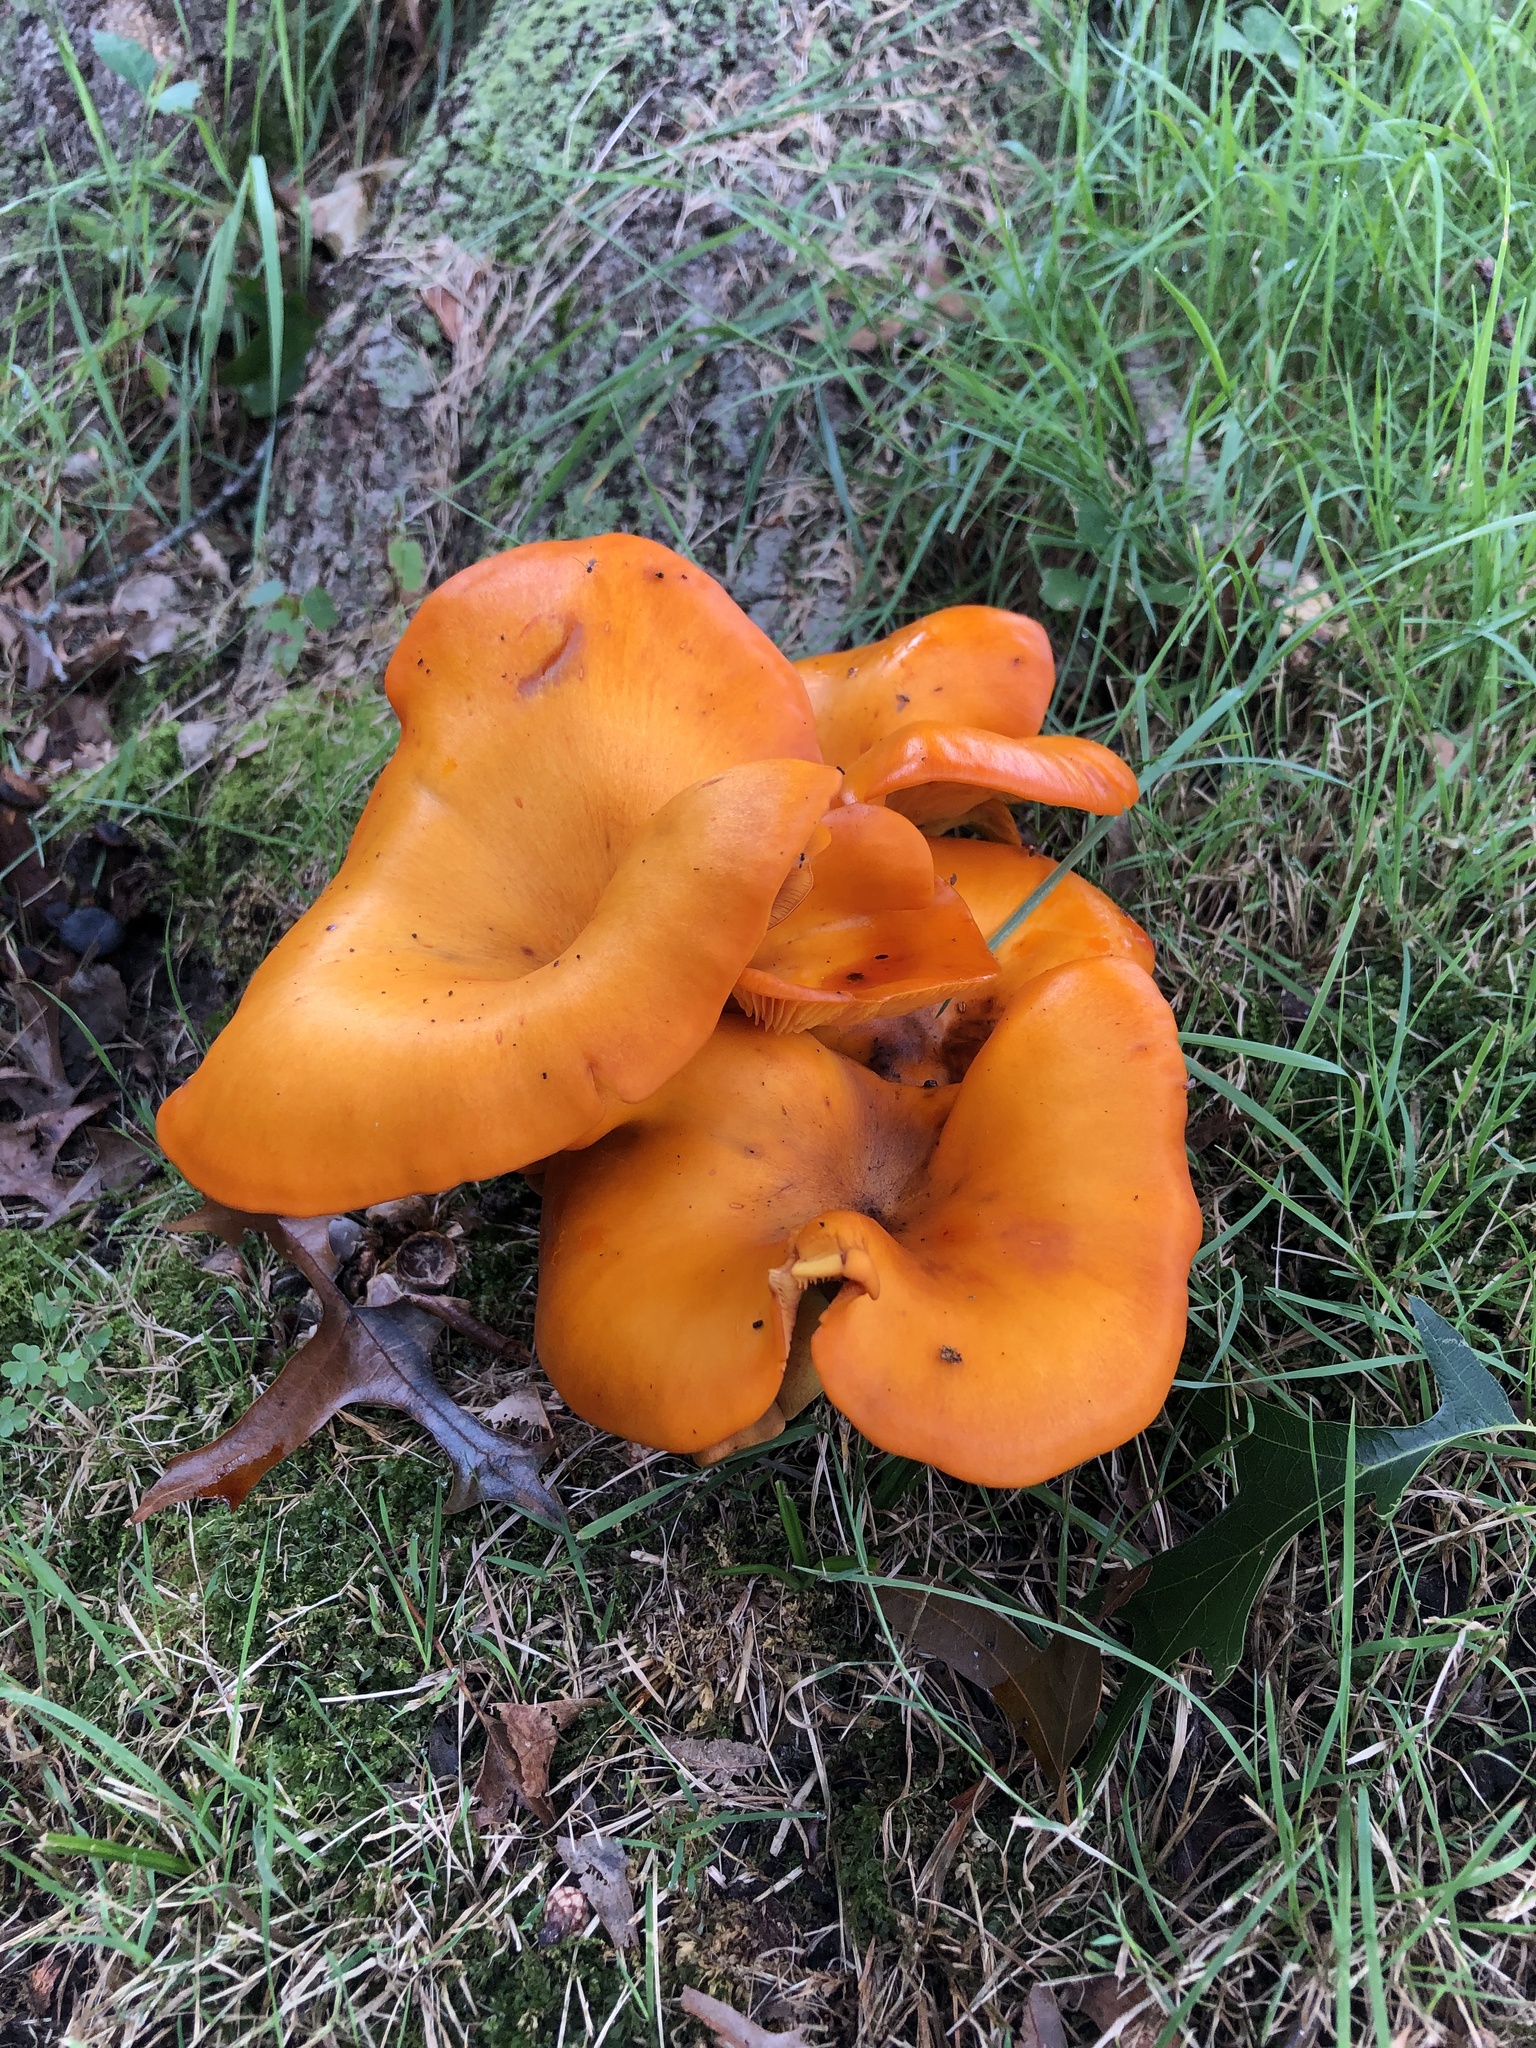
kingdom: Fungi
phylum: Basidiomycota
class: Agaricomycetes
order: Agaricales
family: Omphalotaceae
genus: Omphalotus
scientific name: Omphalotus illudens
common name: Jack o lantern
